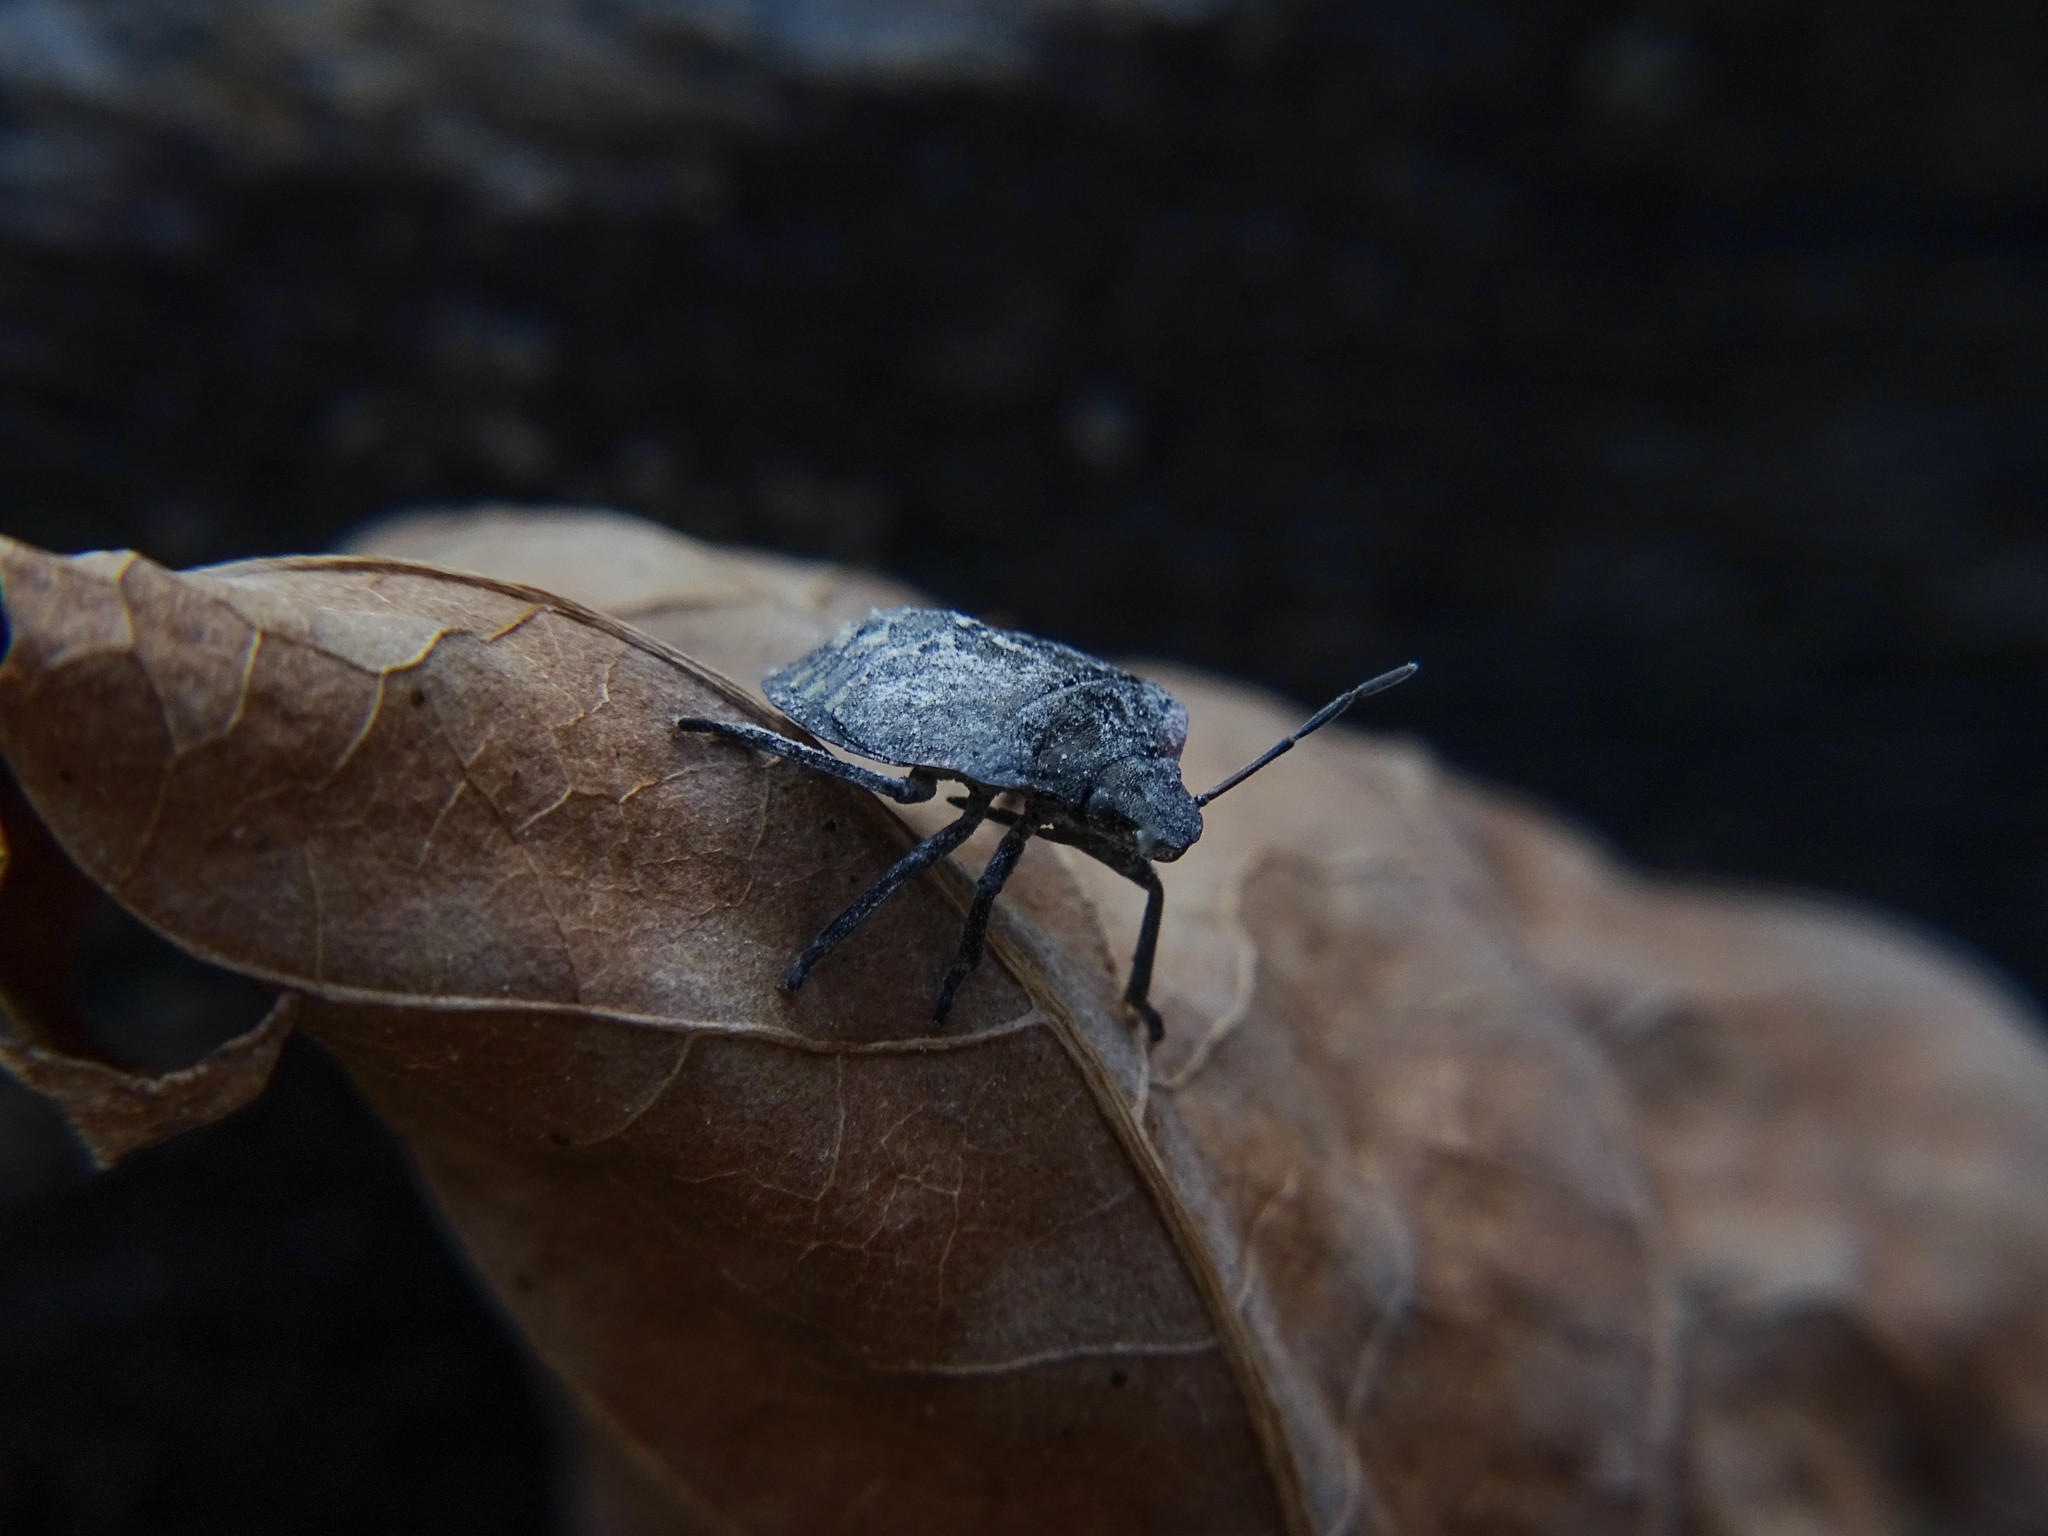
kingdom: Animalia
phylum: Arthropoda
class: Insecta
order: Hemiptera
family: Pentatomidae
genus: Nezara
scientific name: Nezara viridula
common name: Southern green stink bug
